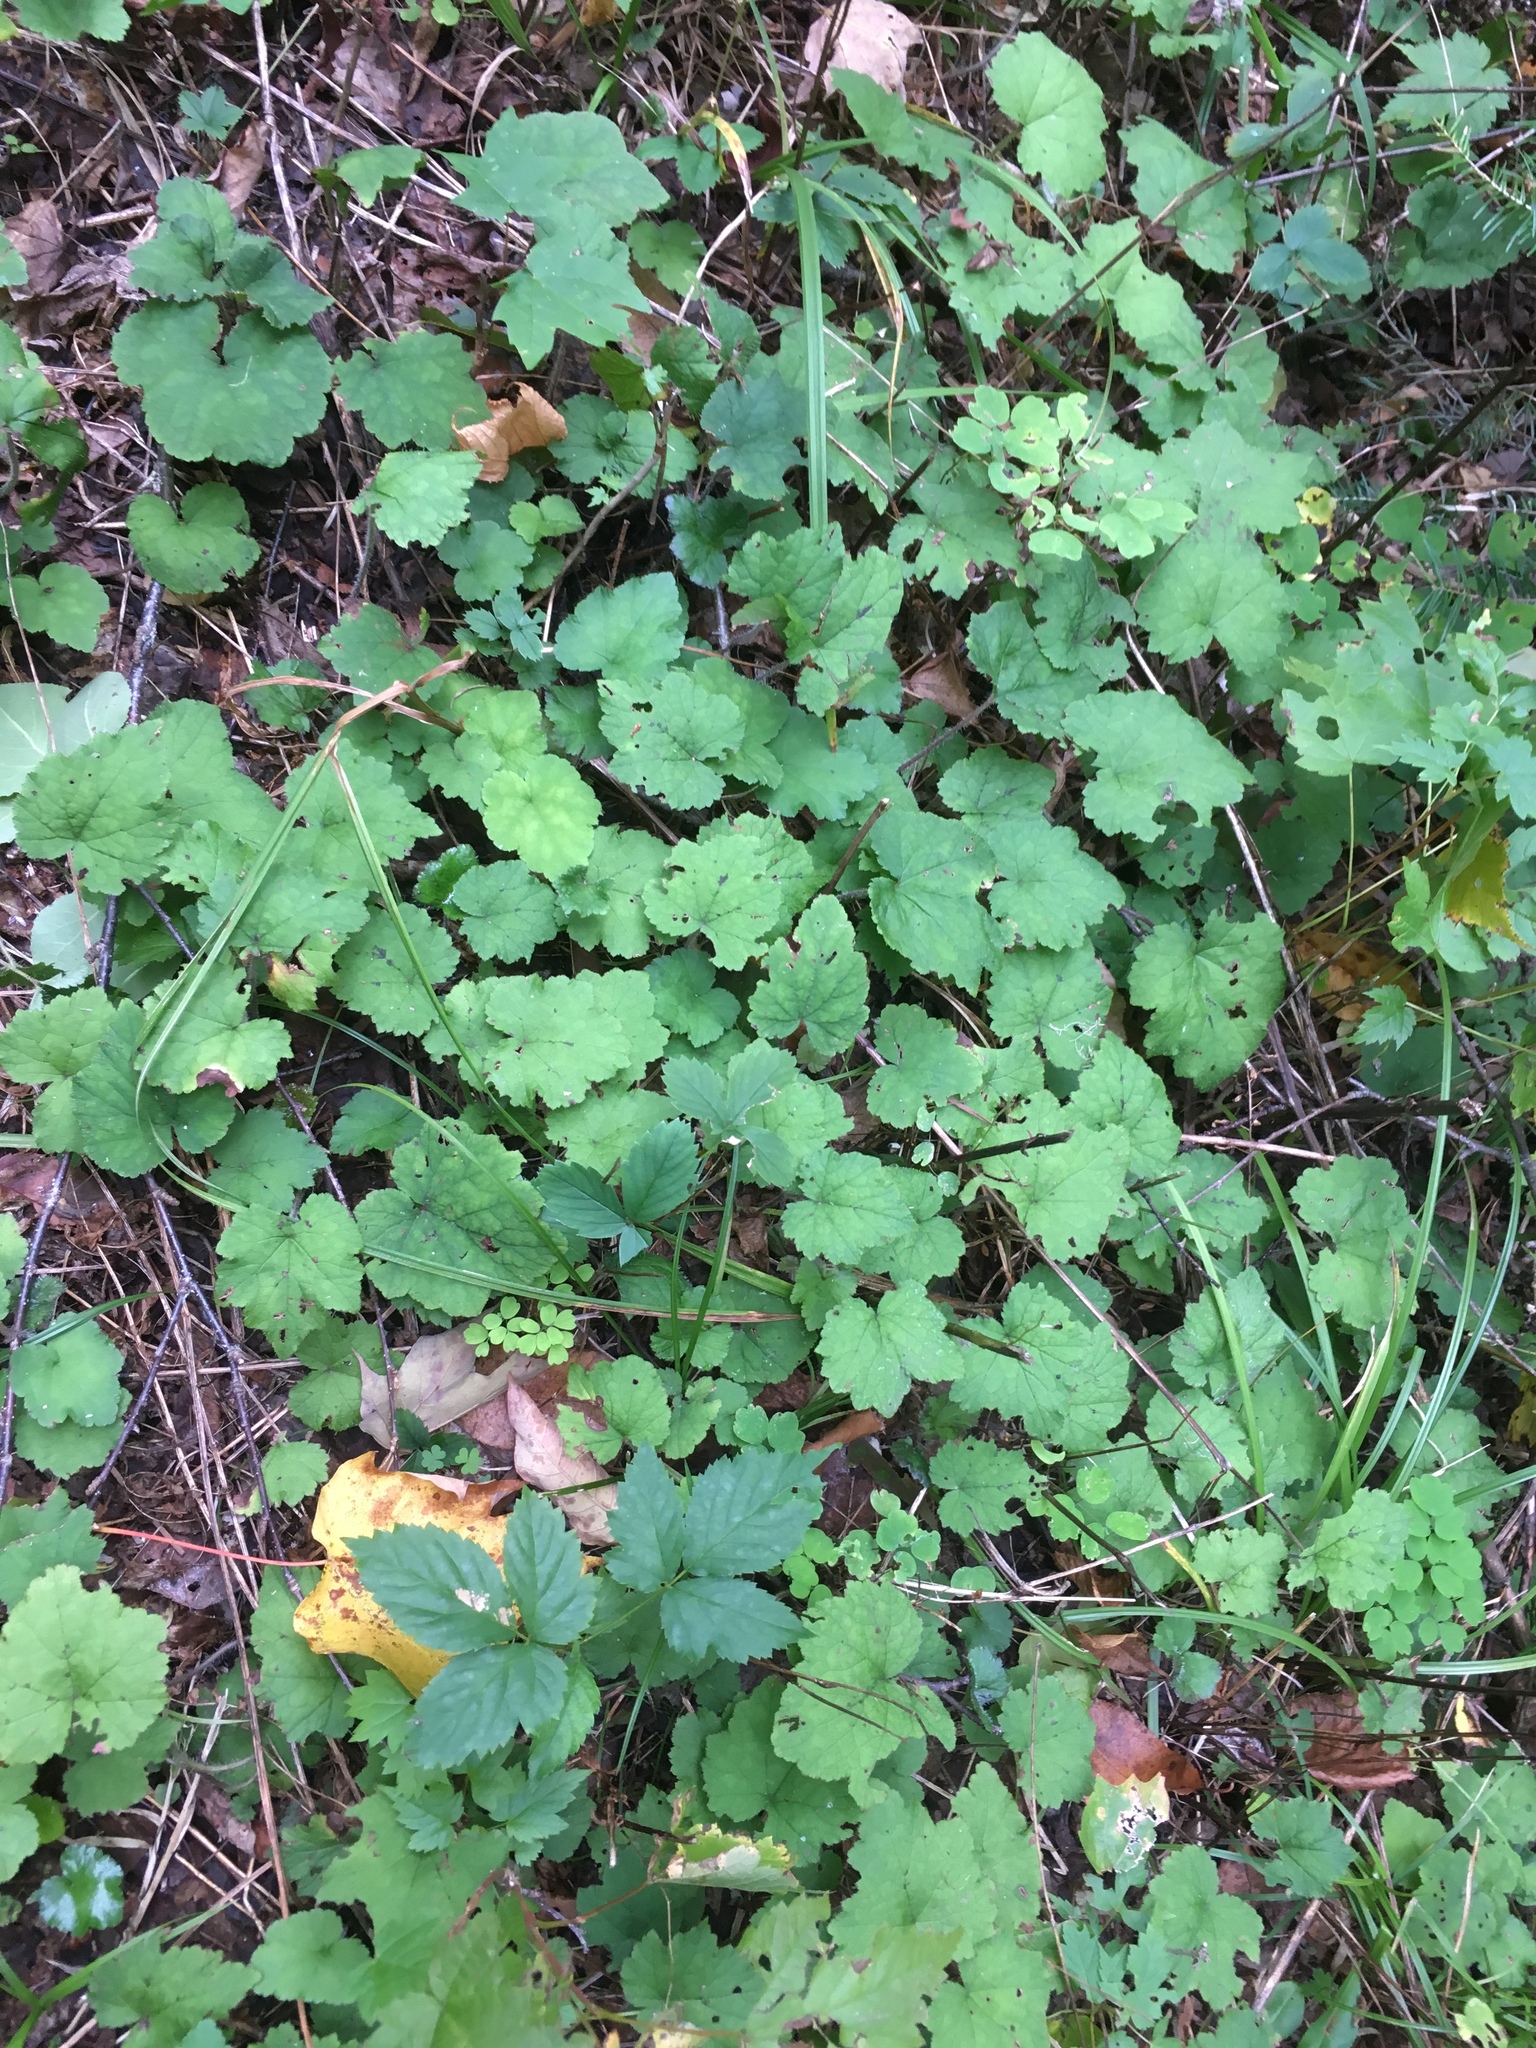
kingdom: Plantae
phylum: Tracheophyta
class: Magnoliopsida
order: Saxifragales
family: Saxifragaceae
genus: Tiarella
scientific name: Tiarella stolonifera
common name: Stoloniferous foamflower
